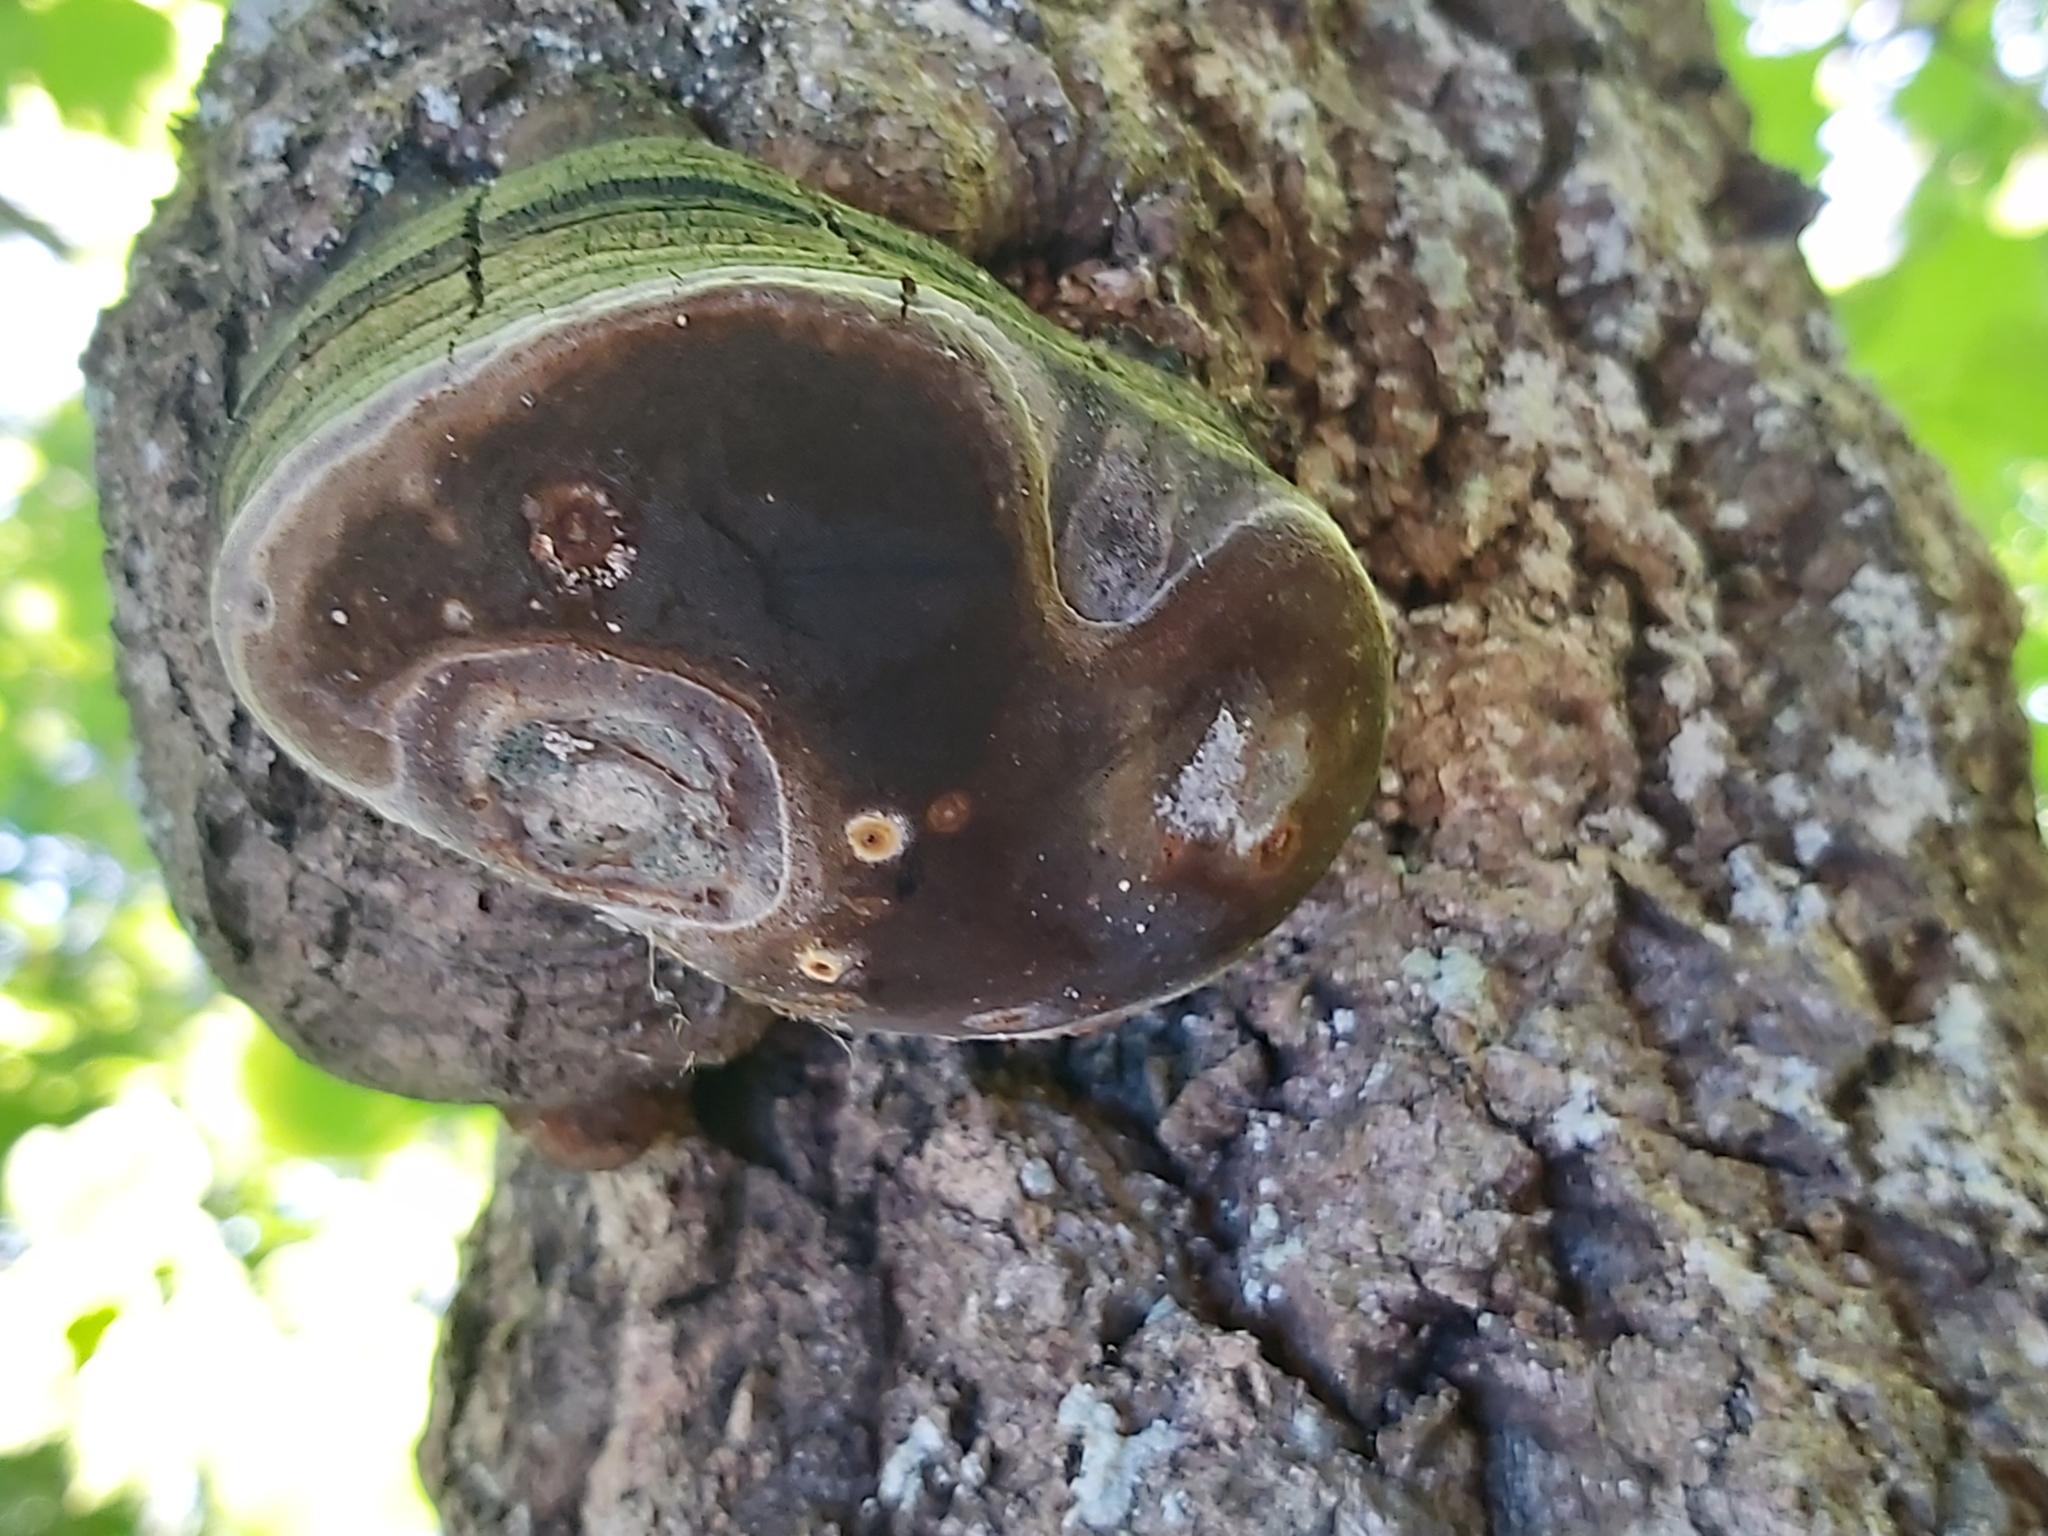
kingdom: Fungi
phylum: Basidiomycota
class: Agaricomycetes
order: Hymenochaetales
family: Hymenochaetaceae
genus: Phellinus
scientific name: Phellinus tremulae
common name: Aspen bracket
